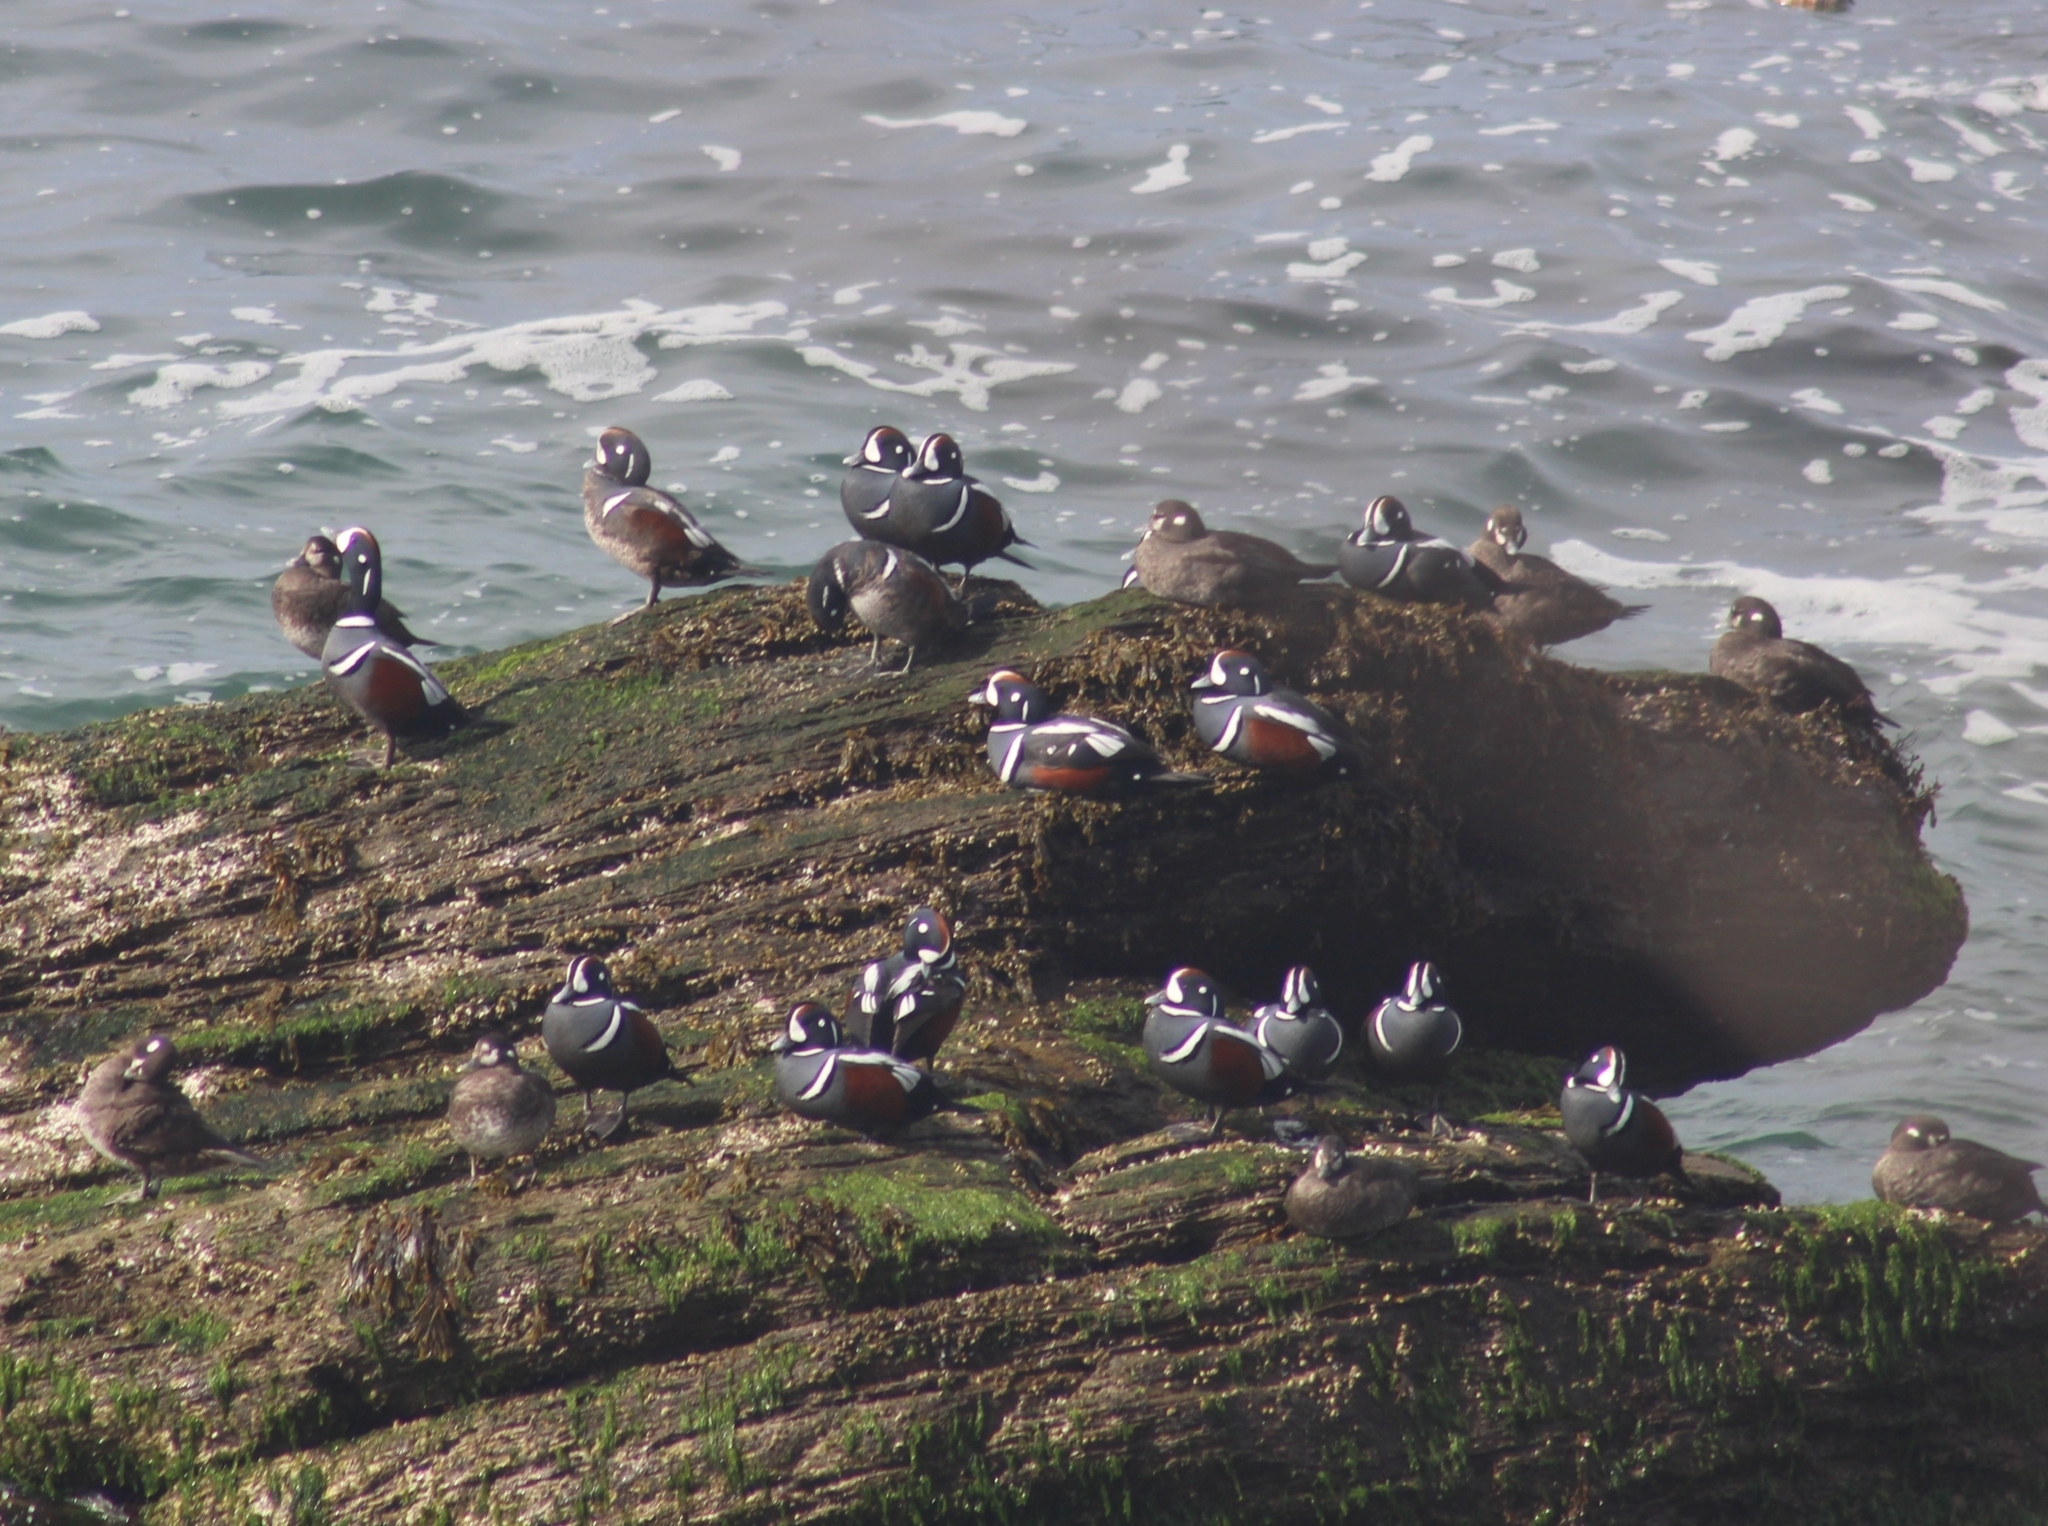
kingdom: Animalia
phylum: Chordata
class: Aves
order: Anseriformes
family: Anatidae
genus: Histrionicus
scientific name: Histrionicus histrionicus
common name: Harlequin duck
